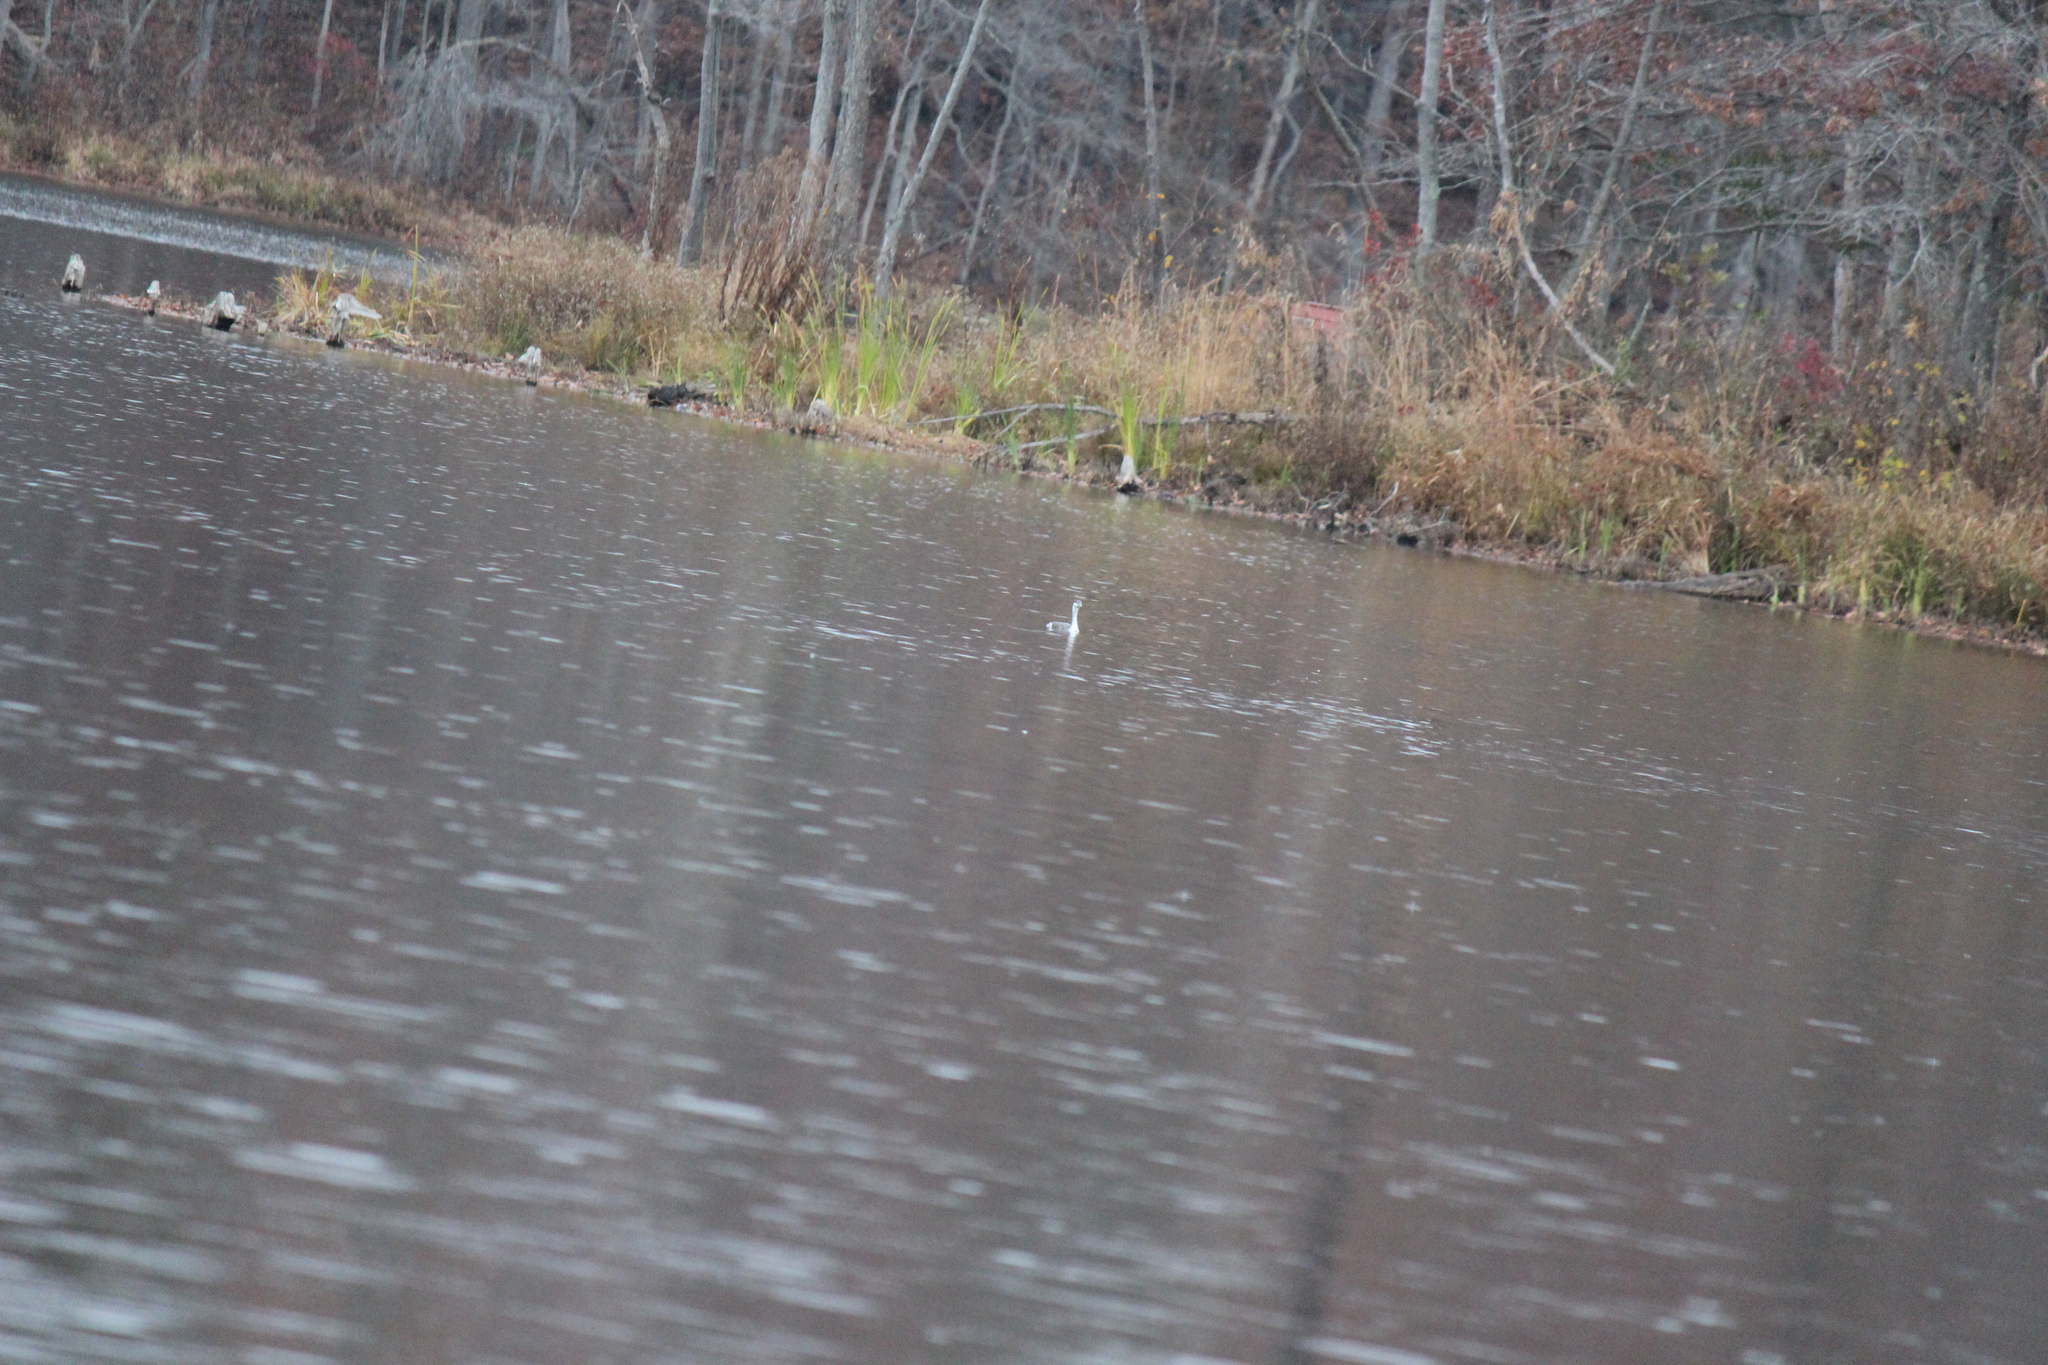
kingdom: Animalia
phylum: Chordata
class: Aves
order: Podicipediformes
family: Podicipedidae
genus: Podiceps
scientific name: Podiceps auritus
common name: Horned grebe
